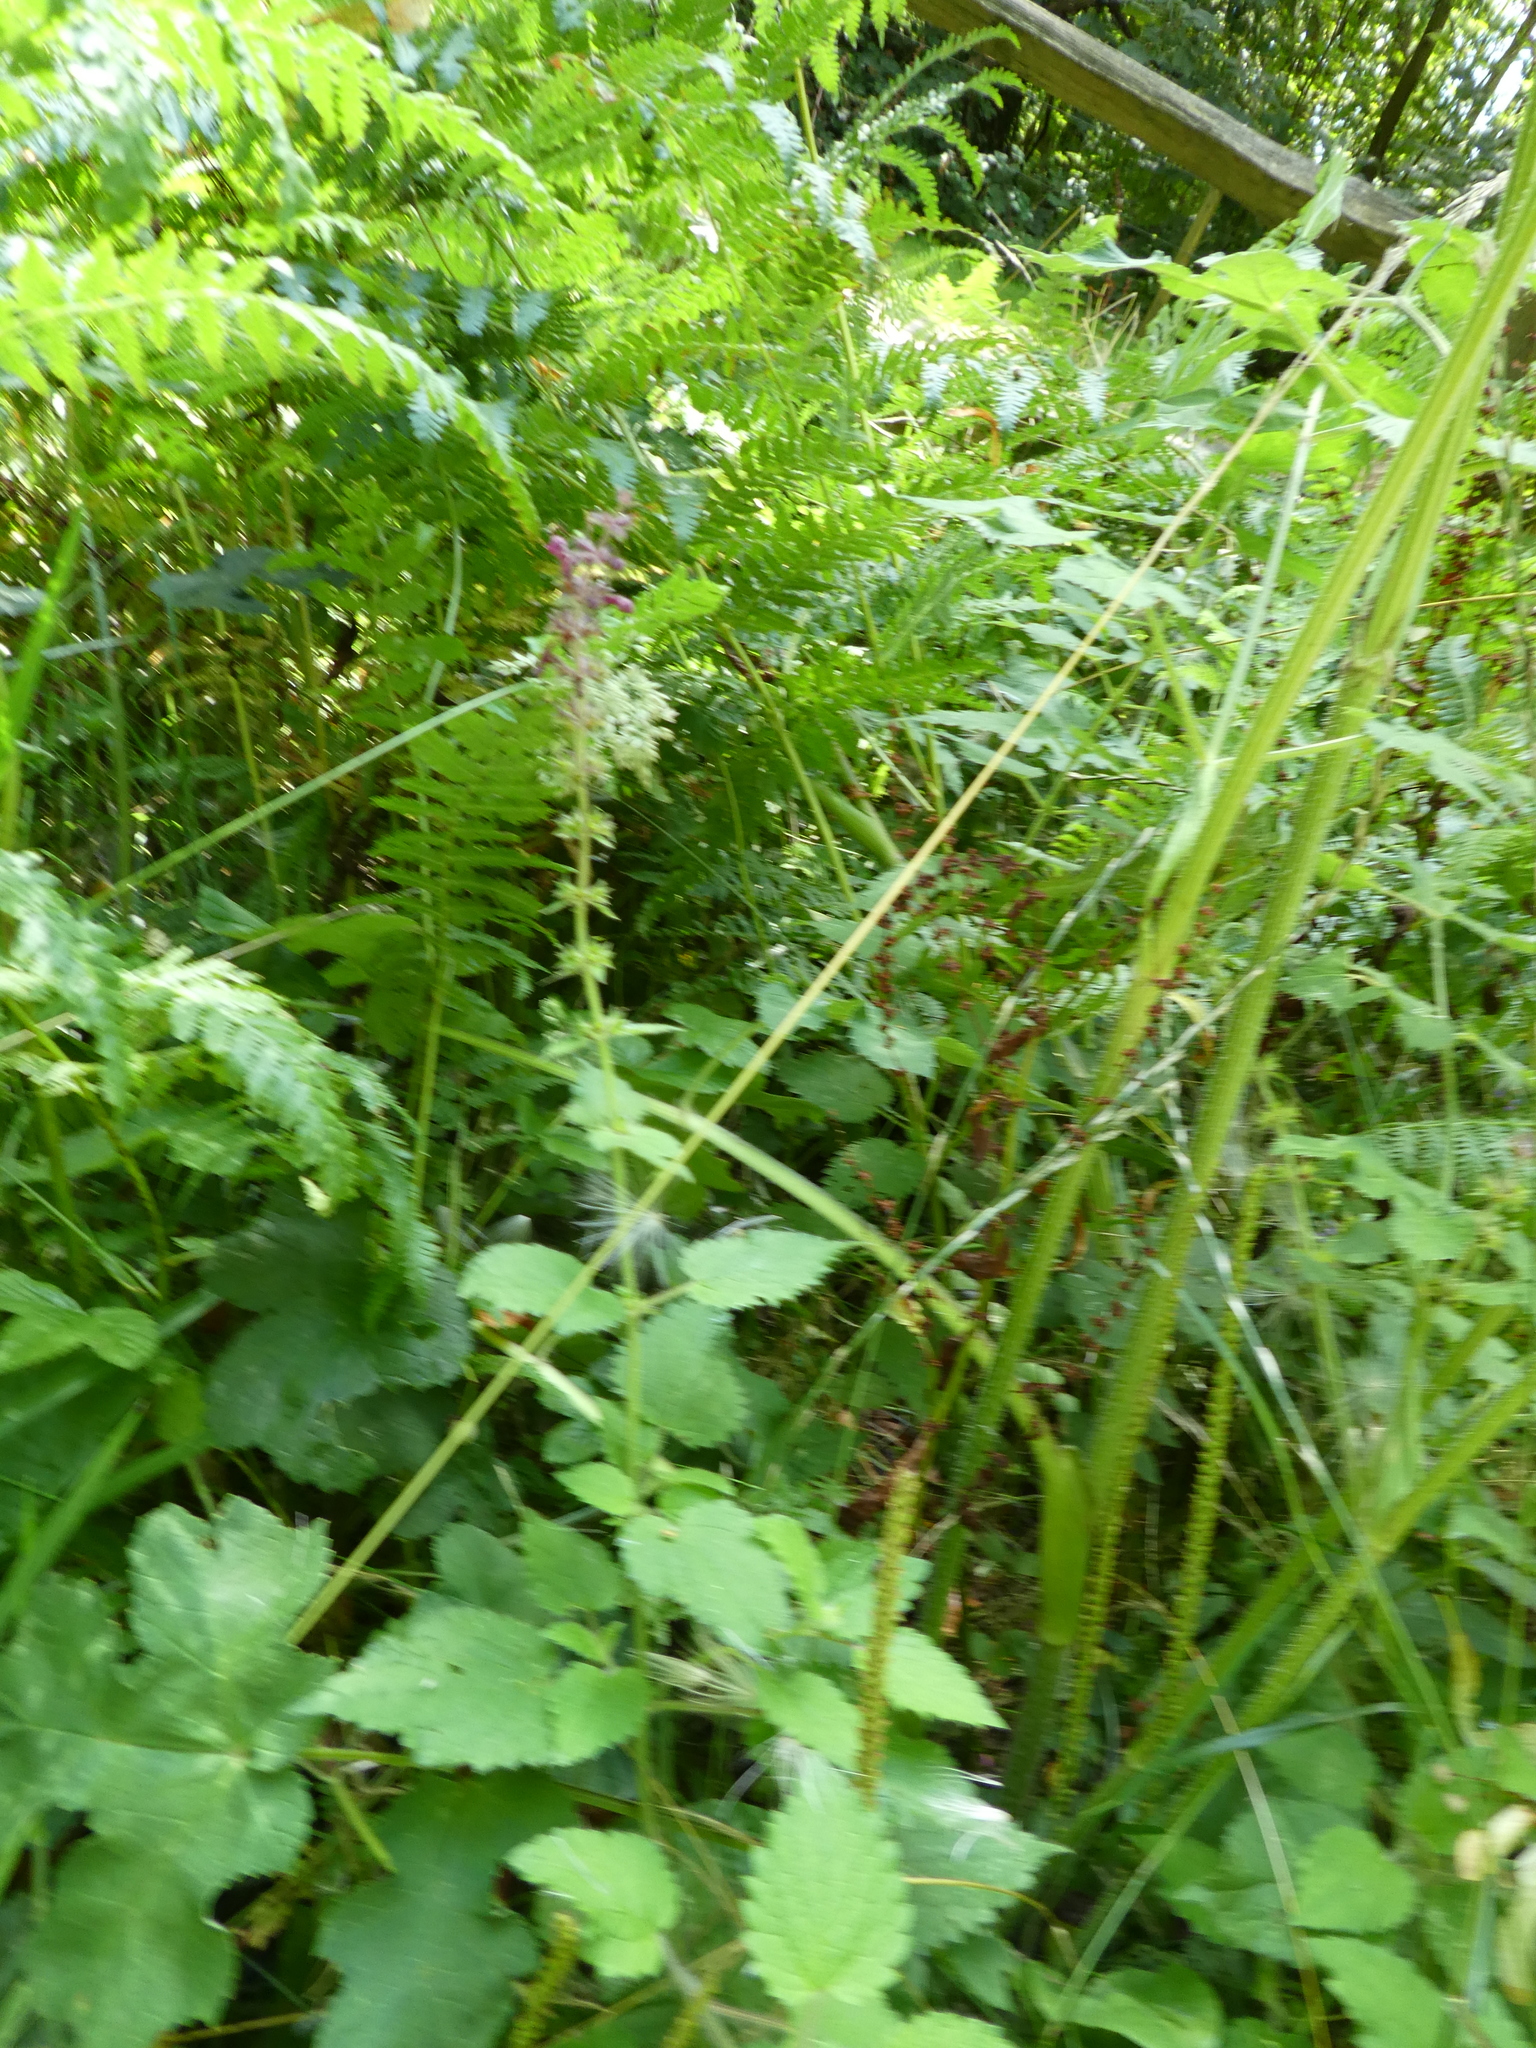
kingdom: Plantae
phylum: Tracheophyta
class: Magnoliopsida
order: Lamiales
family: Lamiaceae
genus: Stachys
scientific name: Stachys sylvatica
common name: Hedge woundwort
